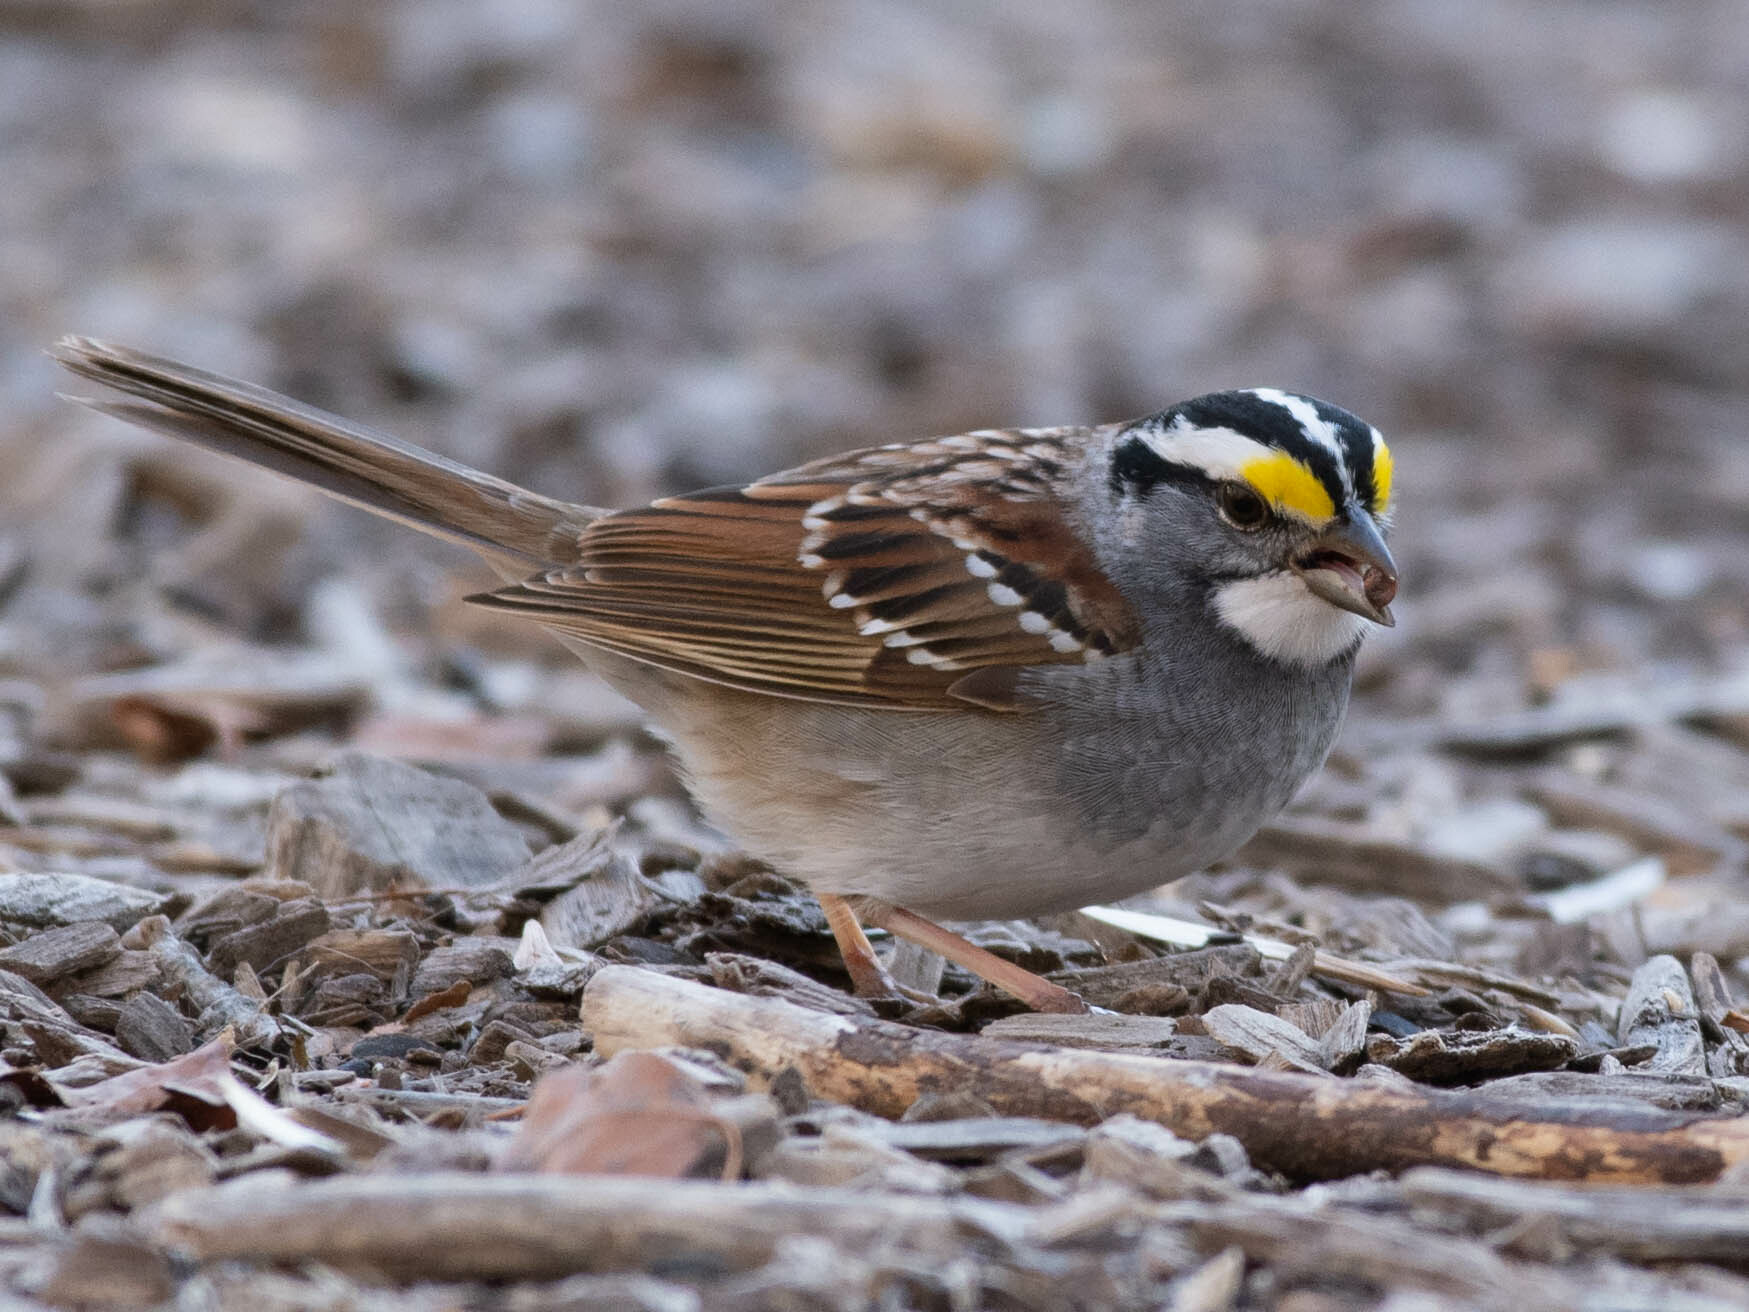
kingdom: Animalia
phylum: Chordata
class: Aves
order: Passeriformes
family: Passerellidae
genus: Zonotrichia
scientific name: Zonotrichia albicollis
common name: White-throated sparrow
